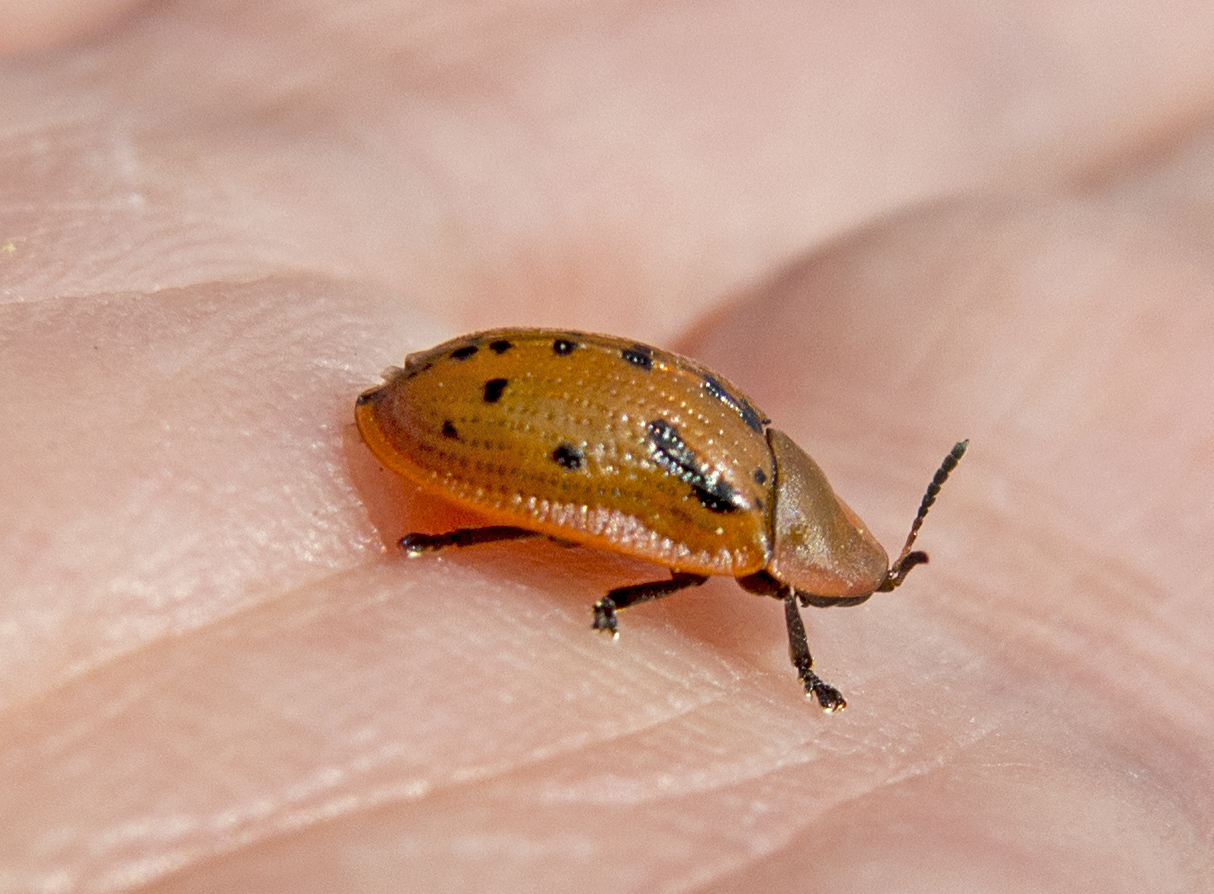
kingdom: Animalia
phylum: Arthropoda
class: Insecta
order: Coleoptera
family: Chrysomelidae
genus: Cassida
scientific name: Cassida murraea
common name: Fleabane tortoise beetle
